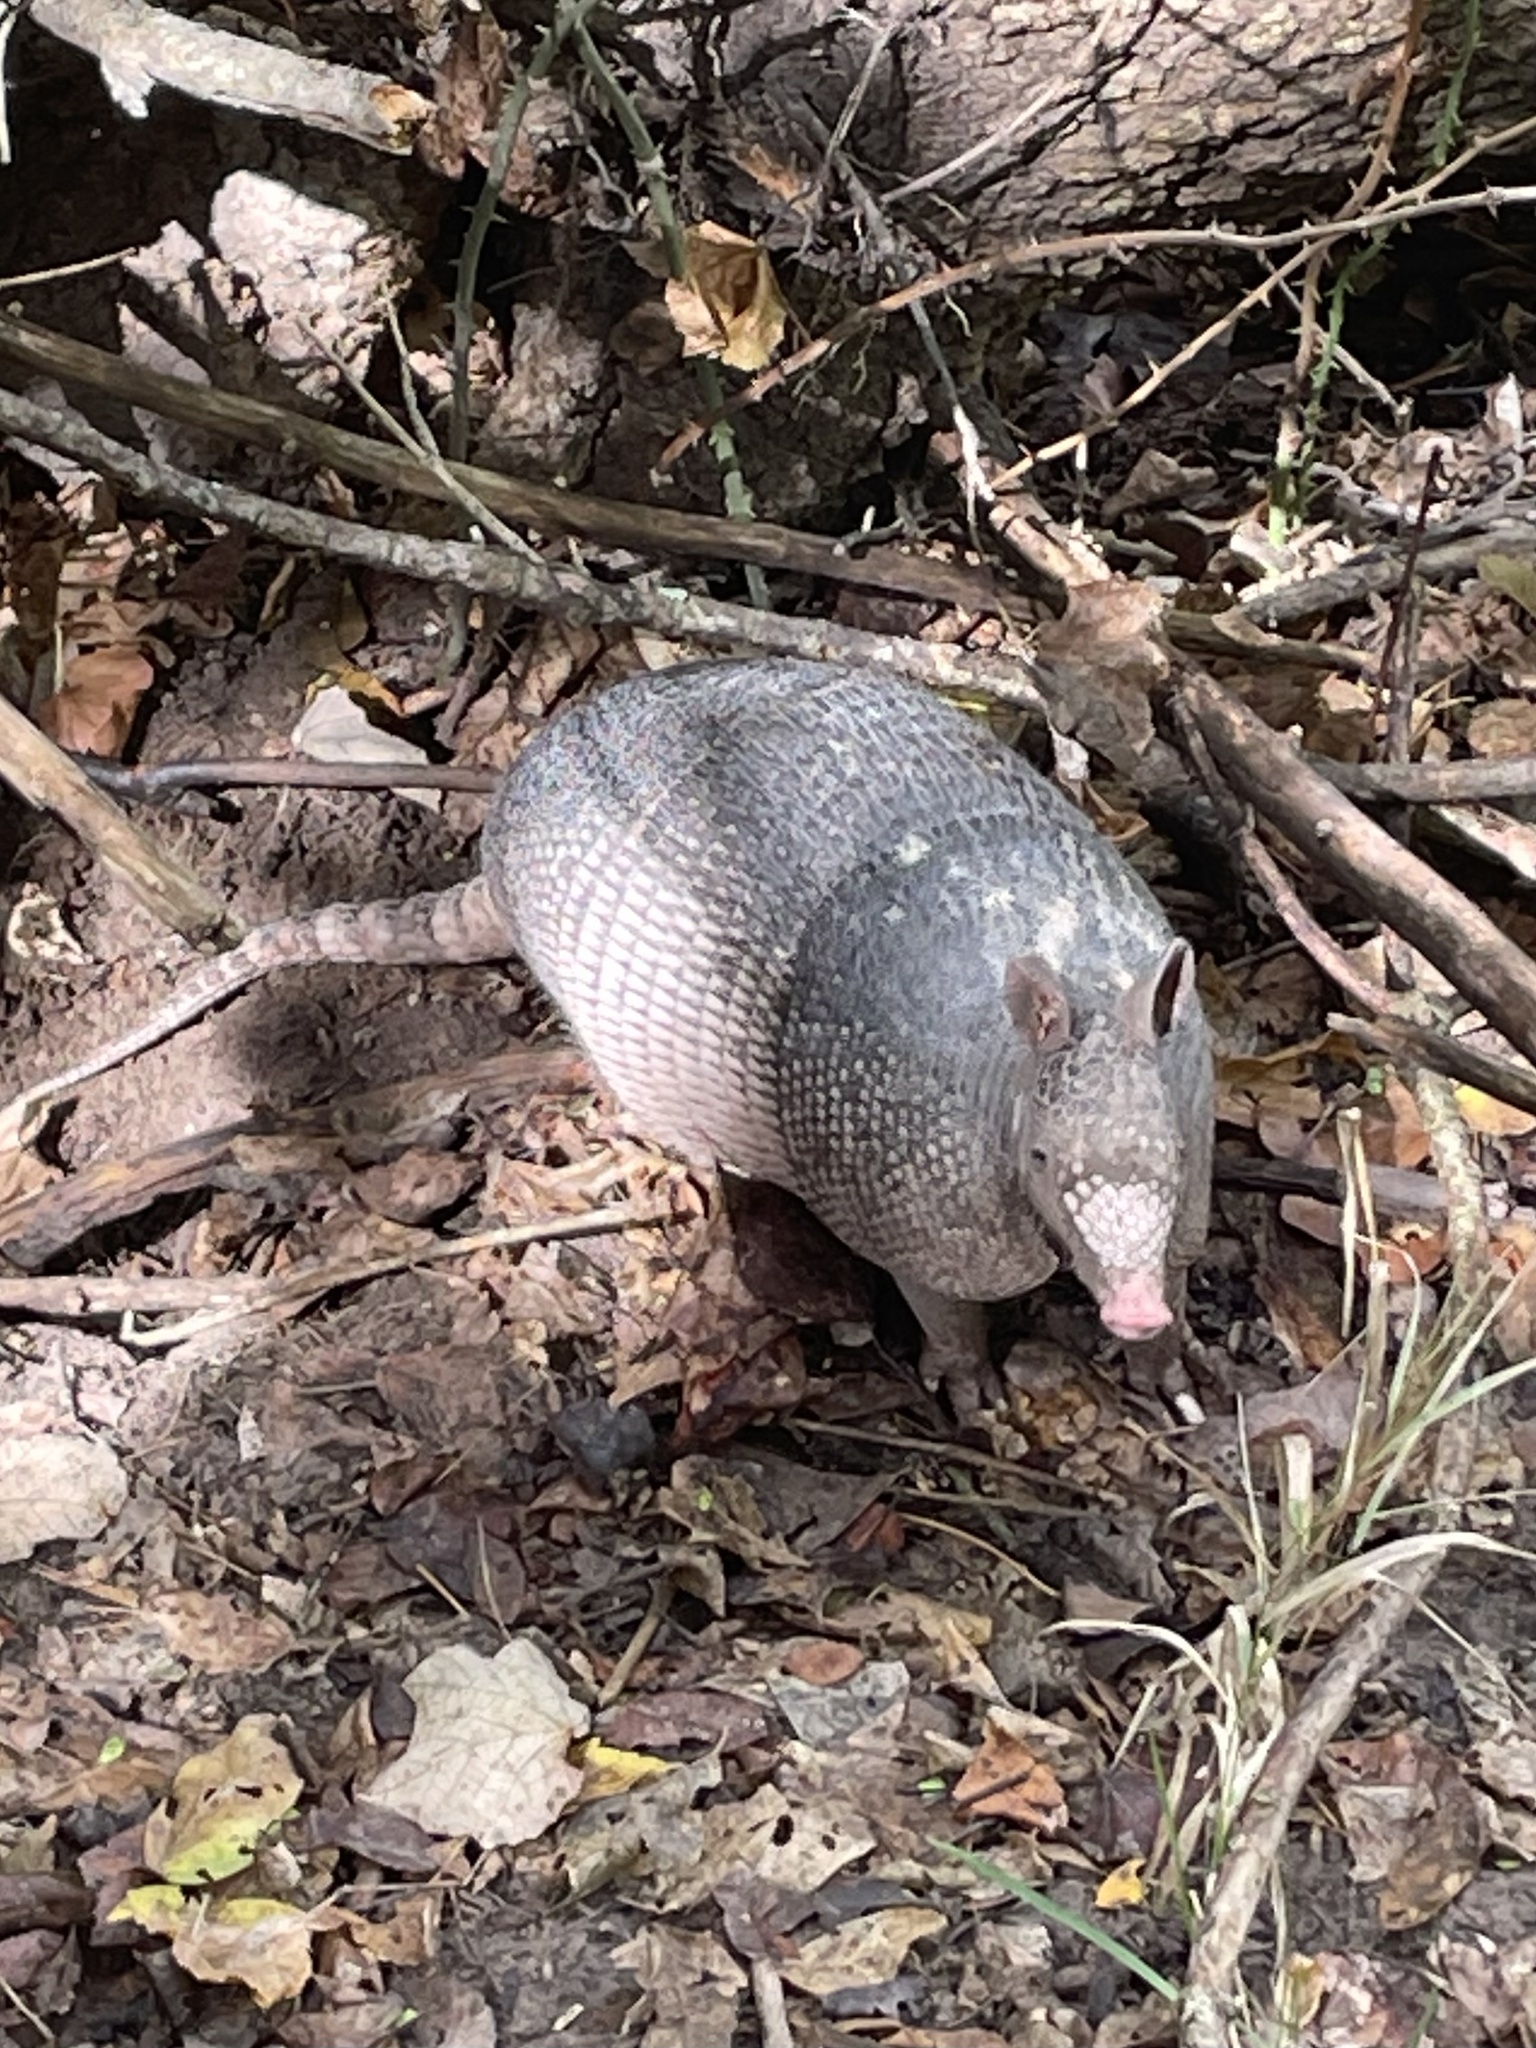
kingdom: Animalia
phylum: Chordata
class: Mammalia
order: Cingulata
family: Dasypodidae
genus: Dasypus
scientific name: Dasypus novemcinctus
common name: Nine-banded armadillo
